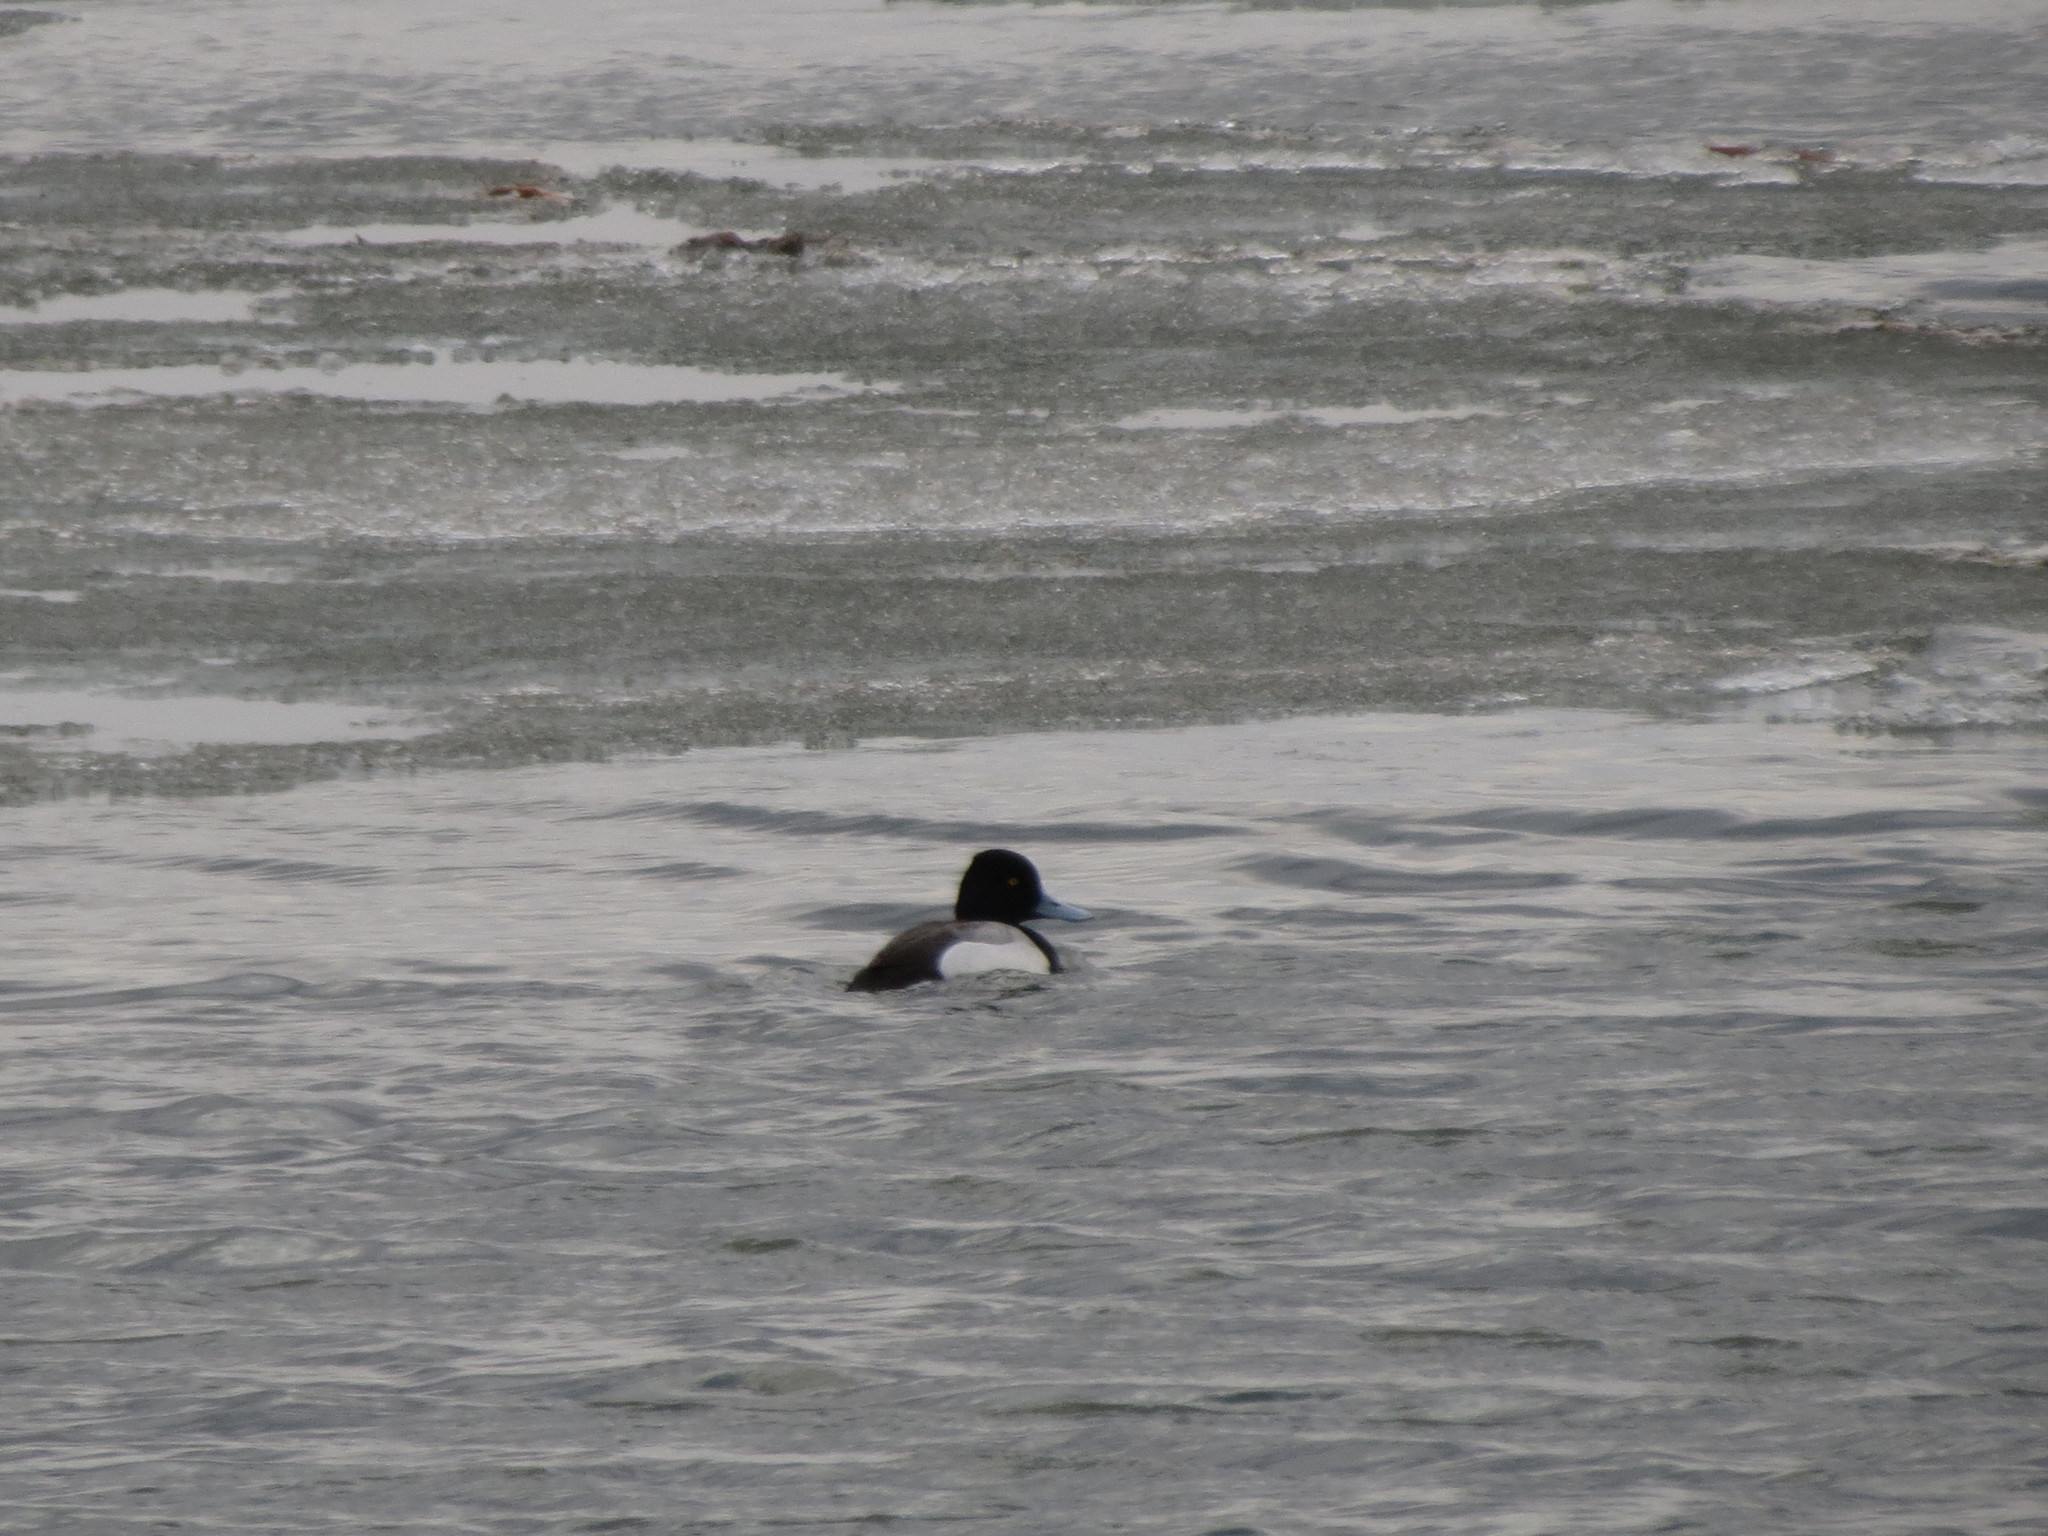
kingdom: Animalia
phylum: Chordata
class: Aves
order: Anseriformes
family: Anatidae
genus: Aythya
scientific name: Aythya affinis
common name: Lesser scaup
